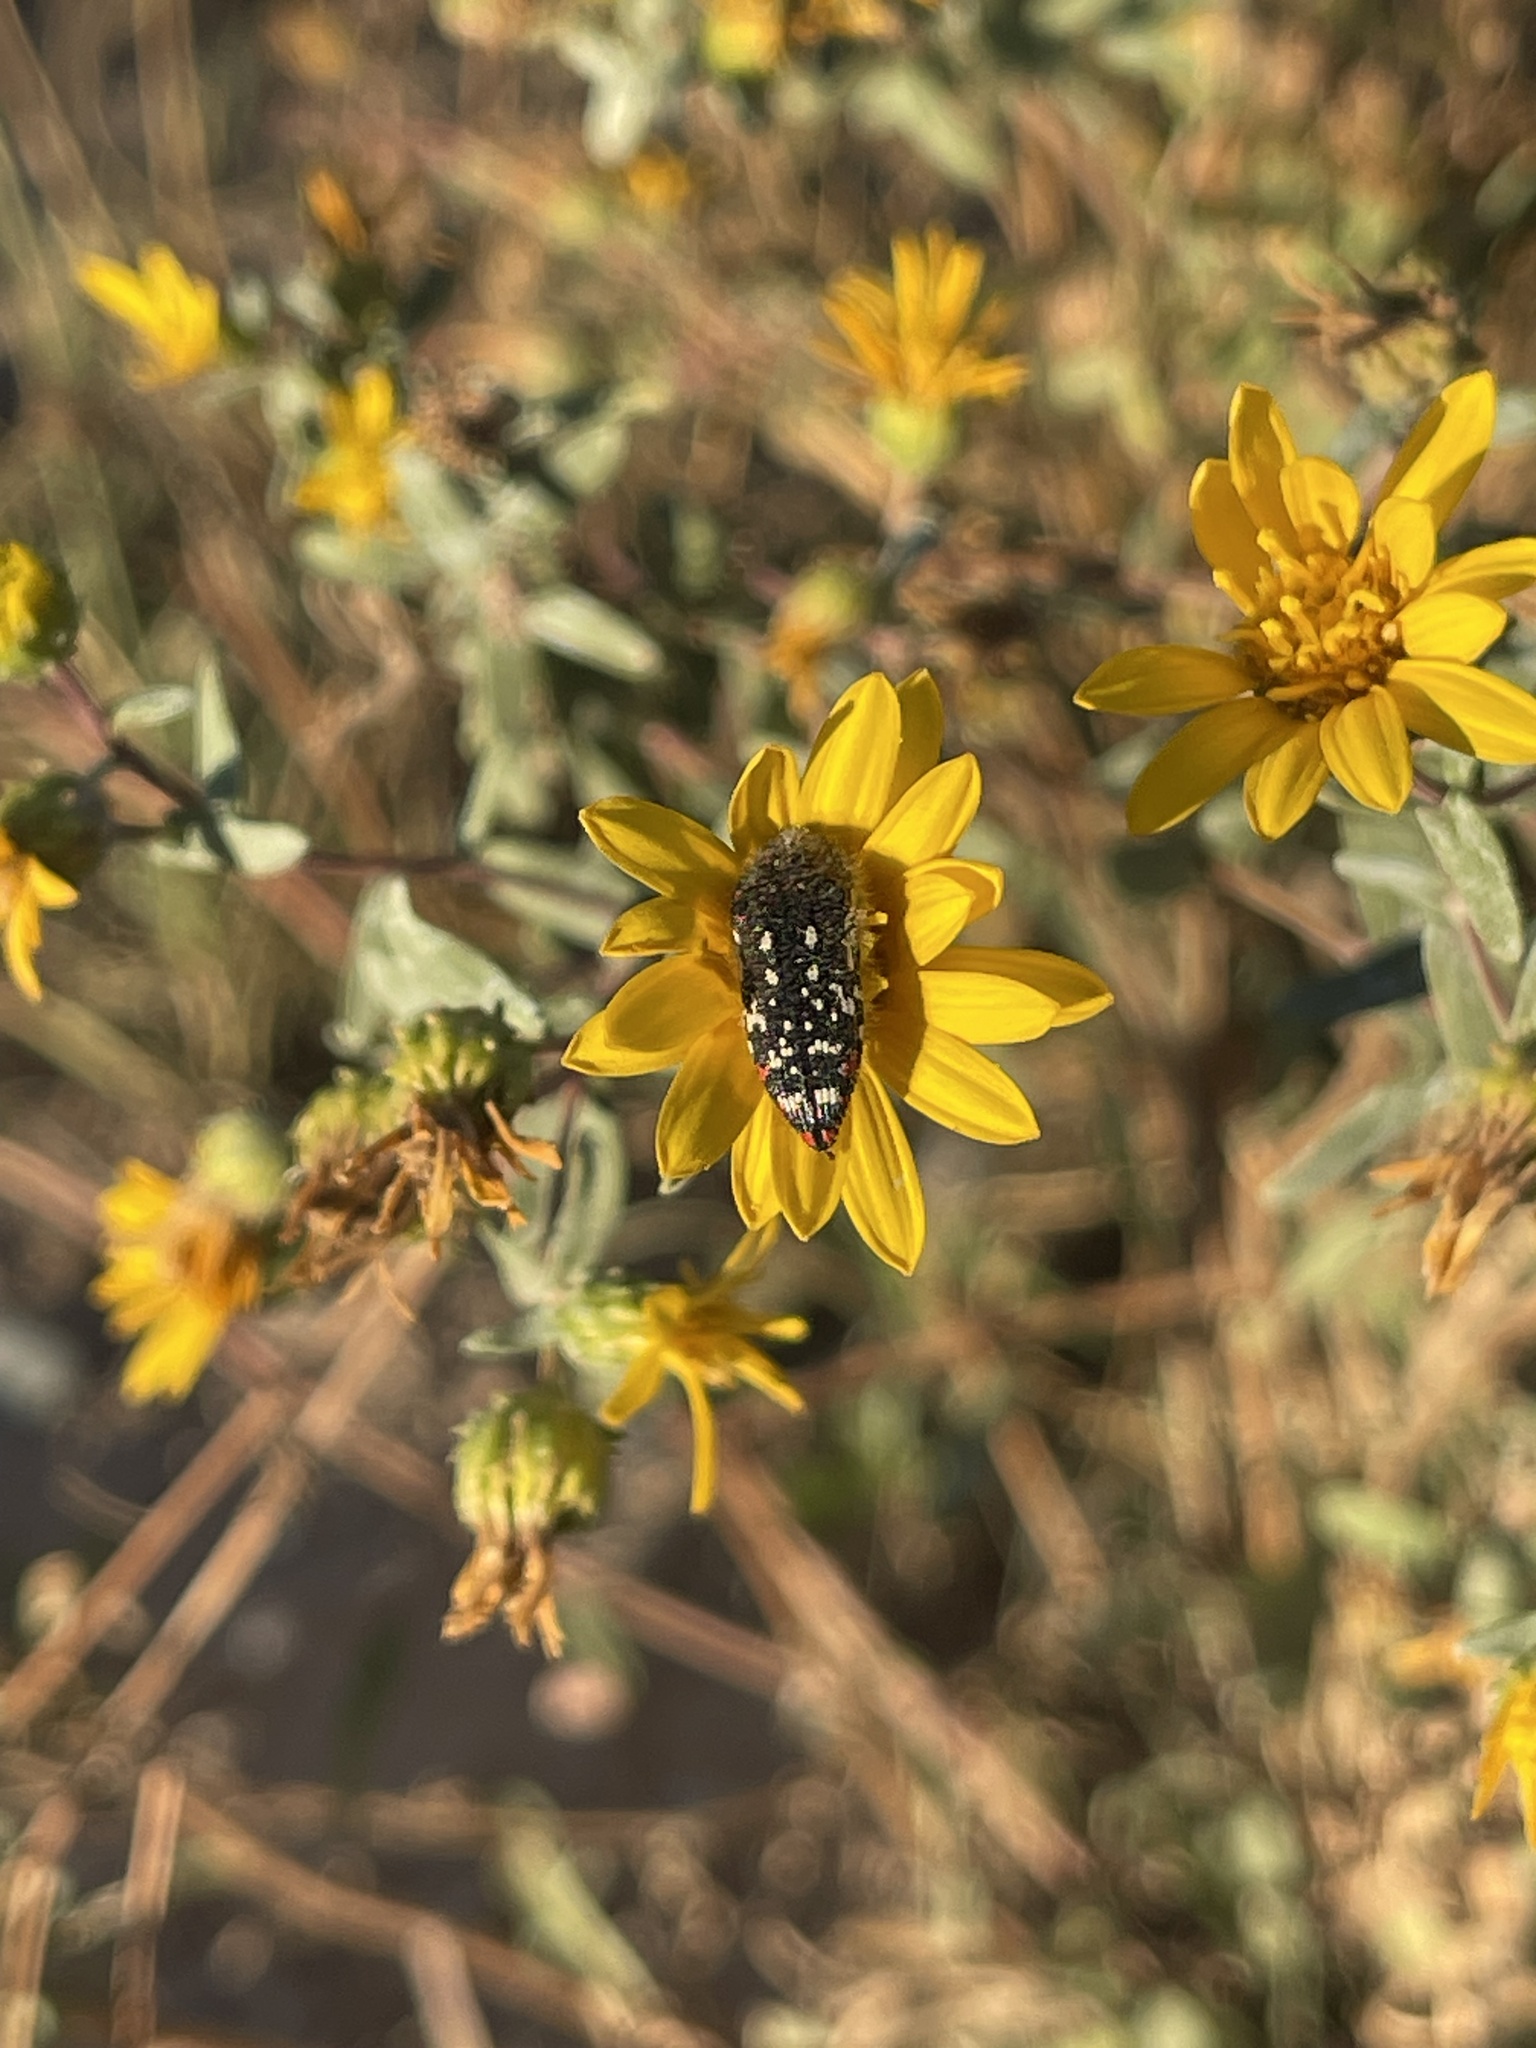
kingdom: Animalia
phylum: Arthropoda
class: Insecta
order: Coleoptera
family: Buprestidae
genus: Acmaeodera
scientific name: Acmaeodera rubronotata
